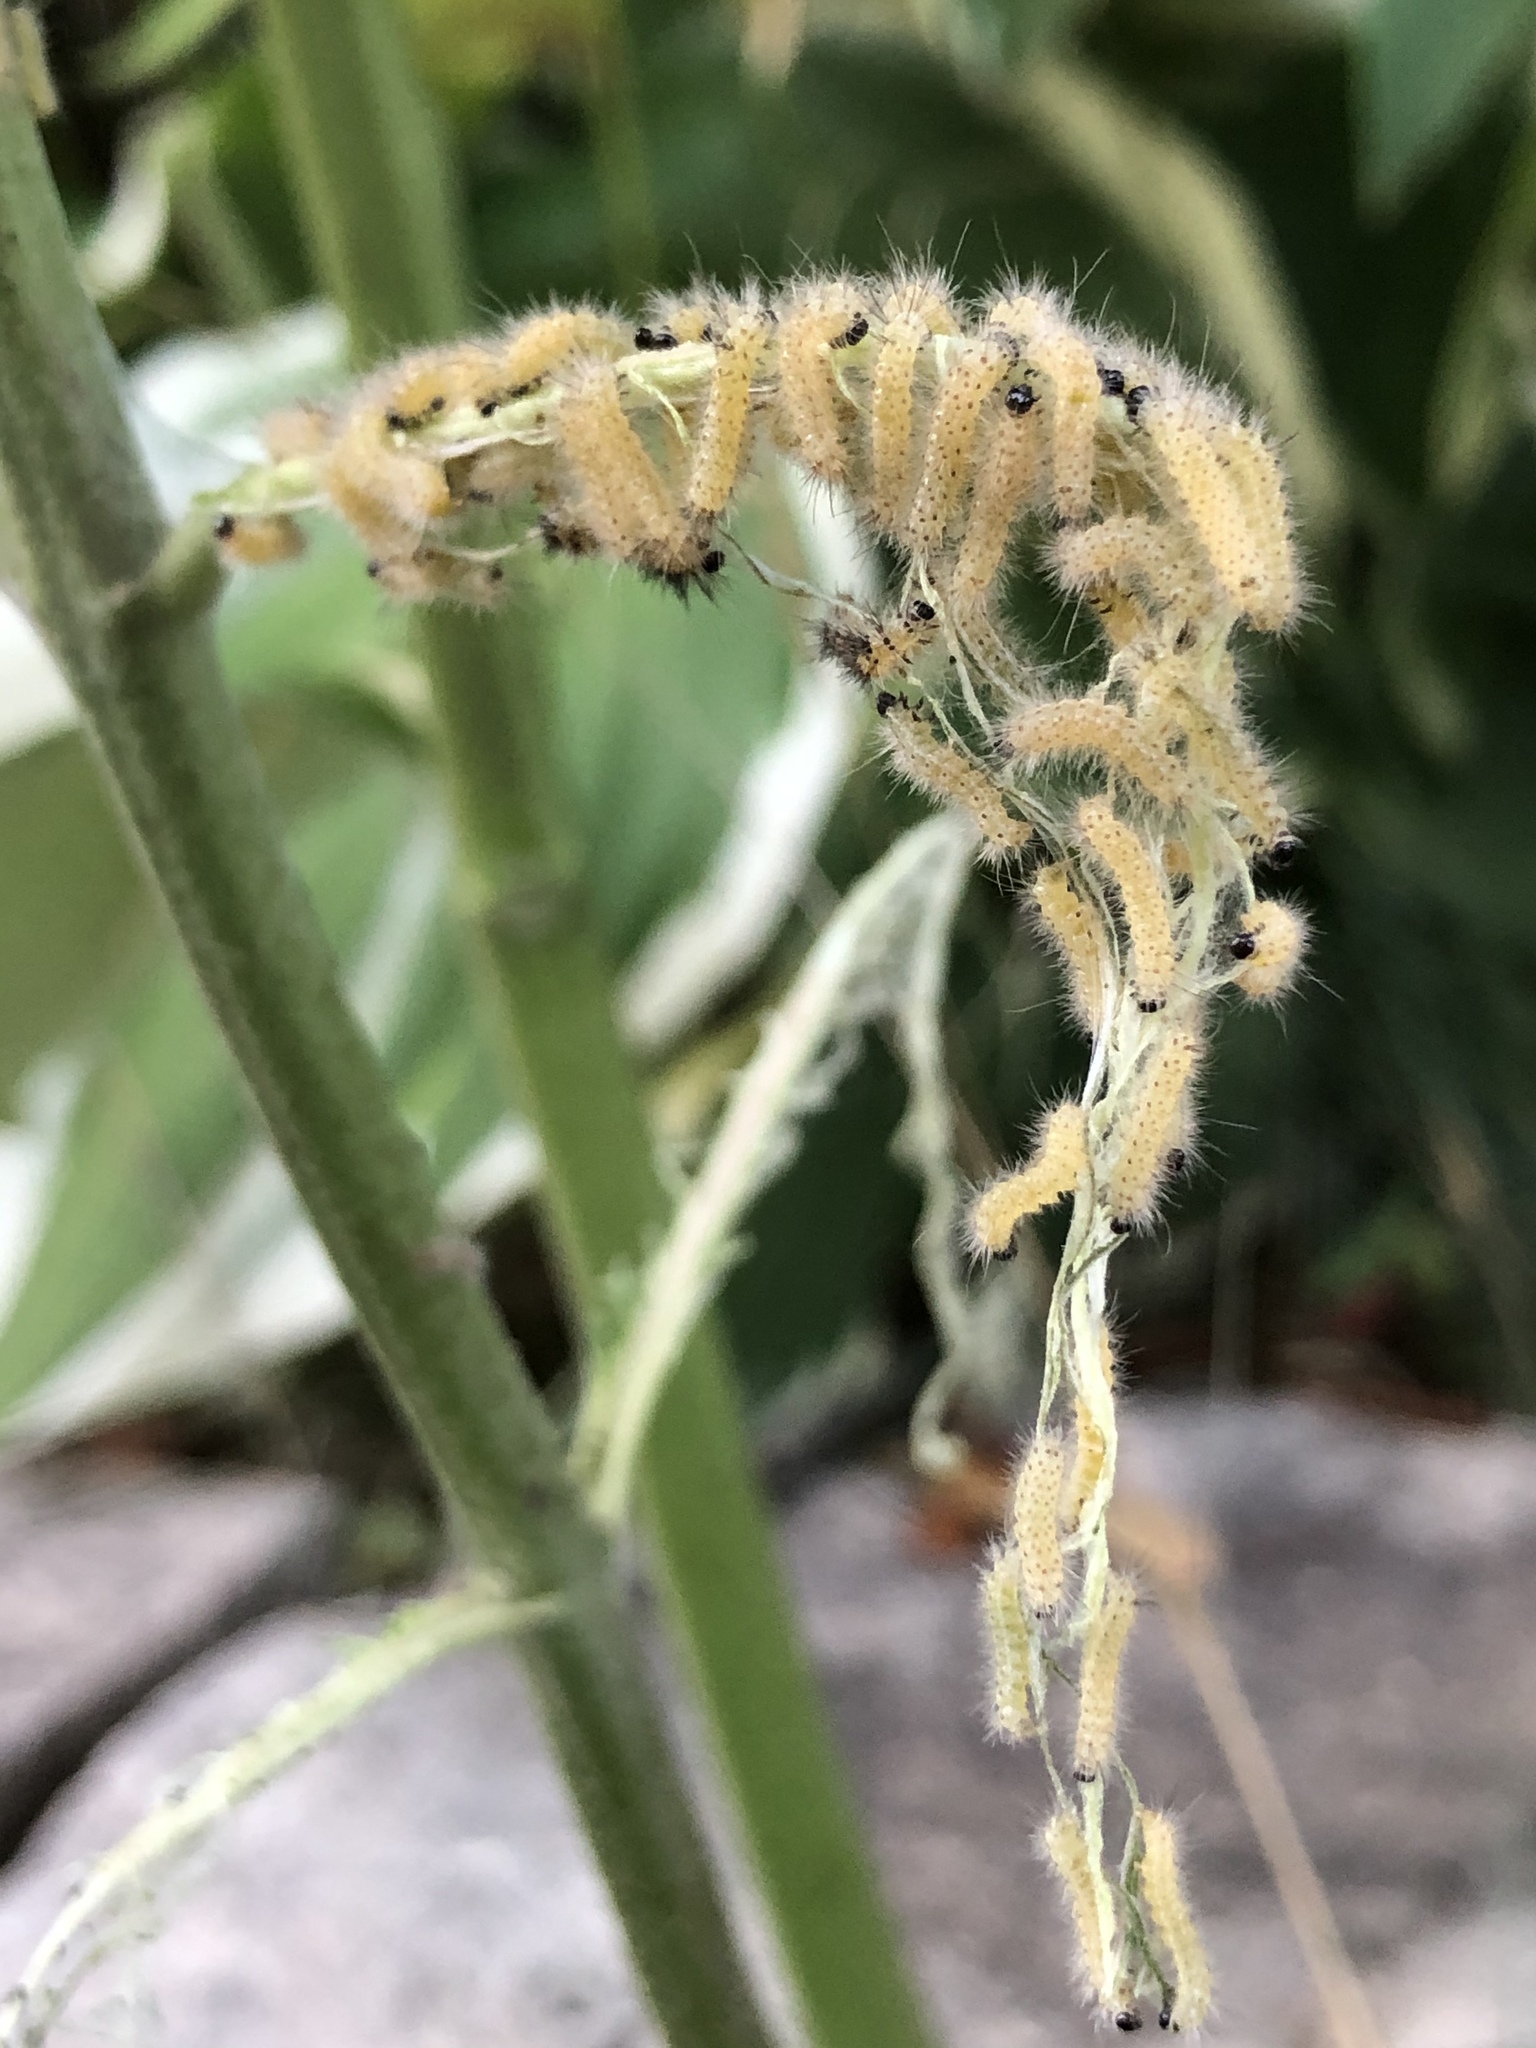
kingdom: Animalia
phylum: Arthropoda
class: Insecta
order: Lepidoptera
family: Erebidae
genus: Euchaetes
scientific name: Euchaetes egle
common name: Milkweed tussock moth
